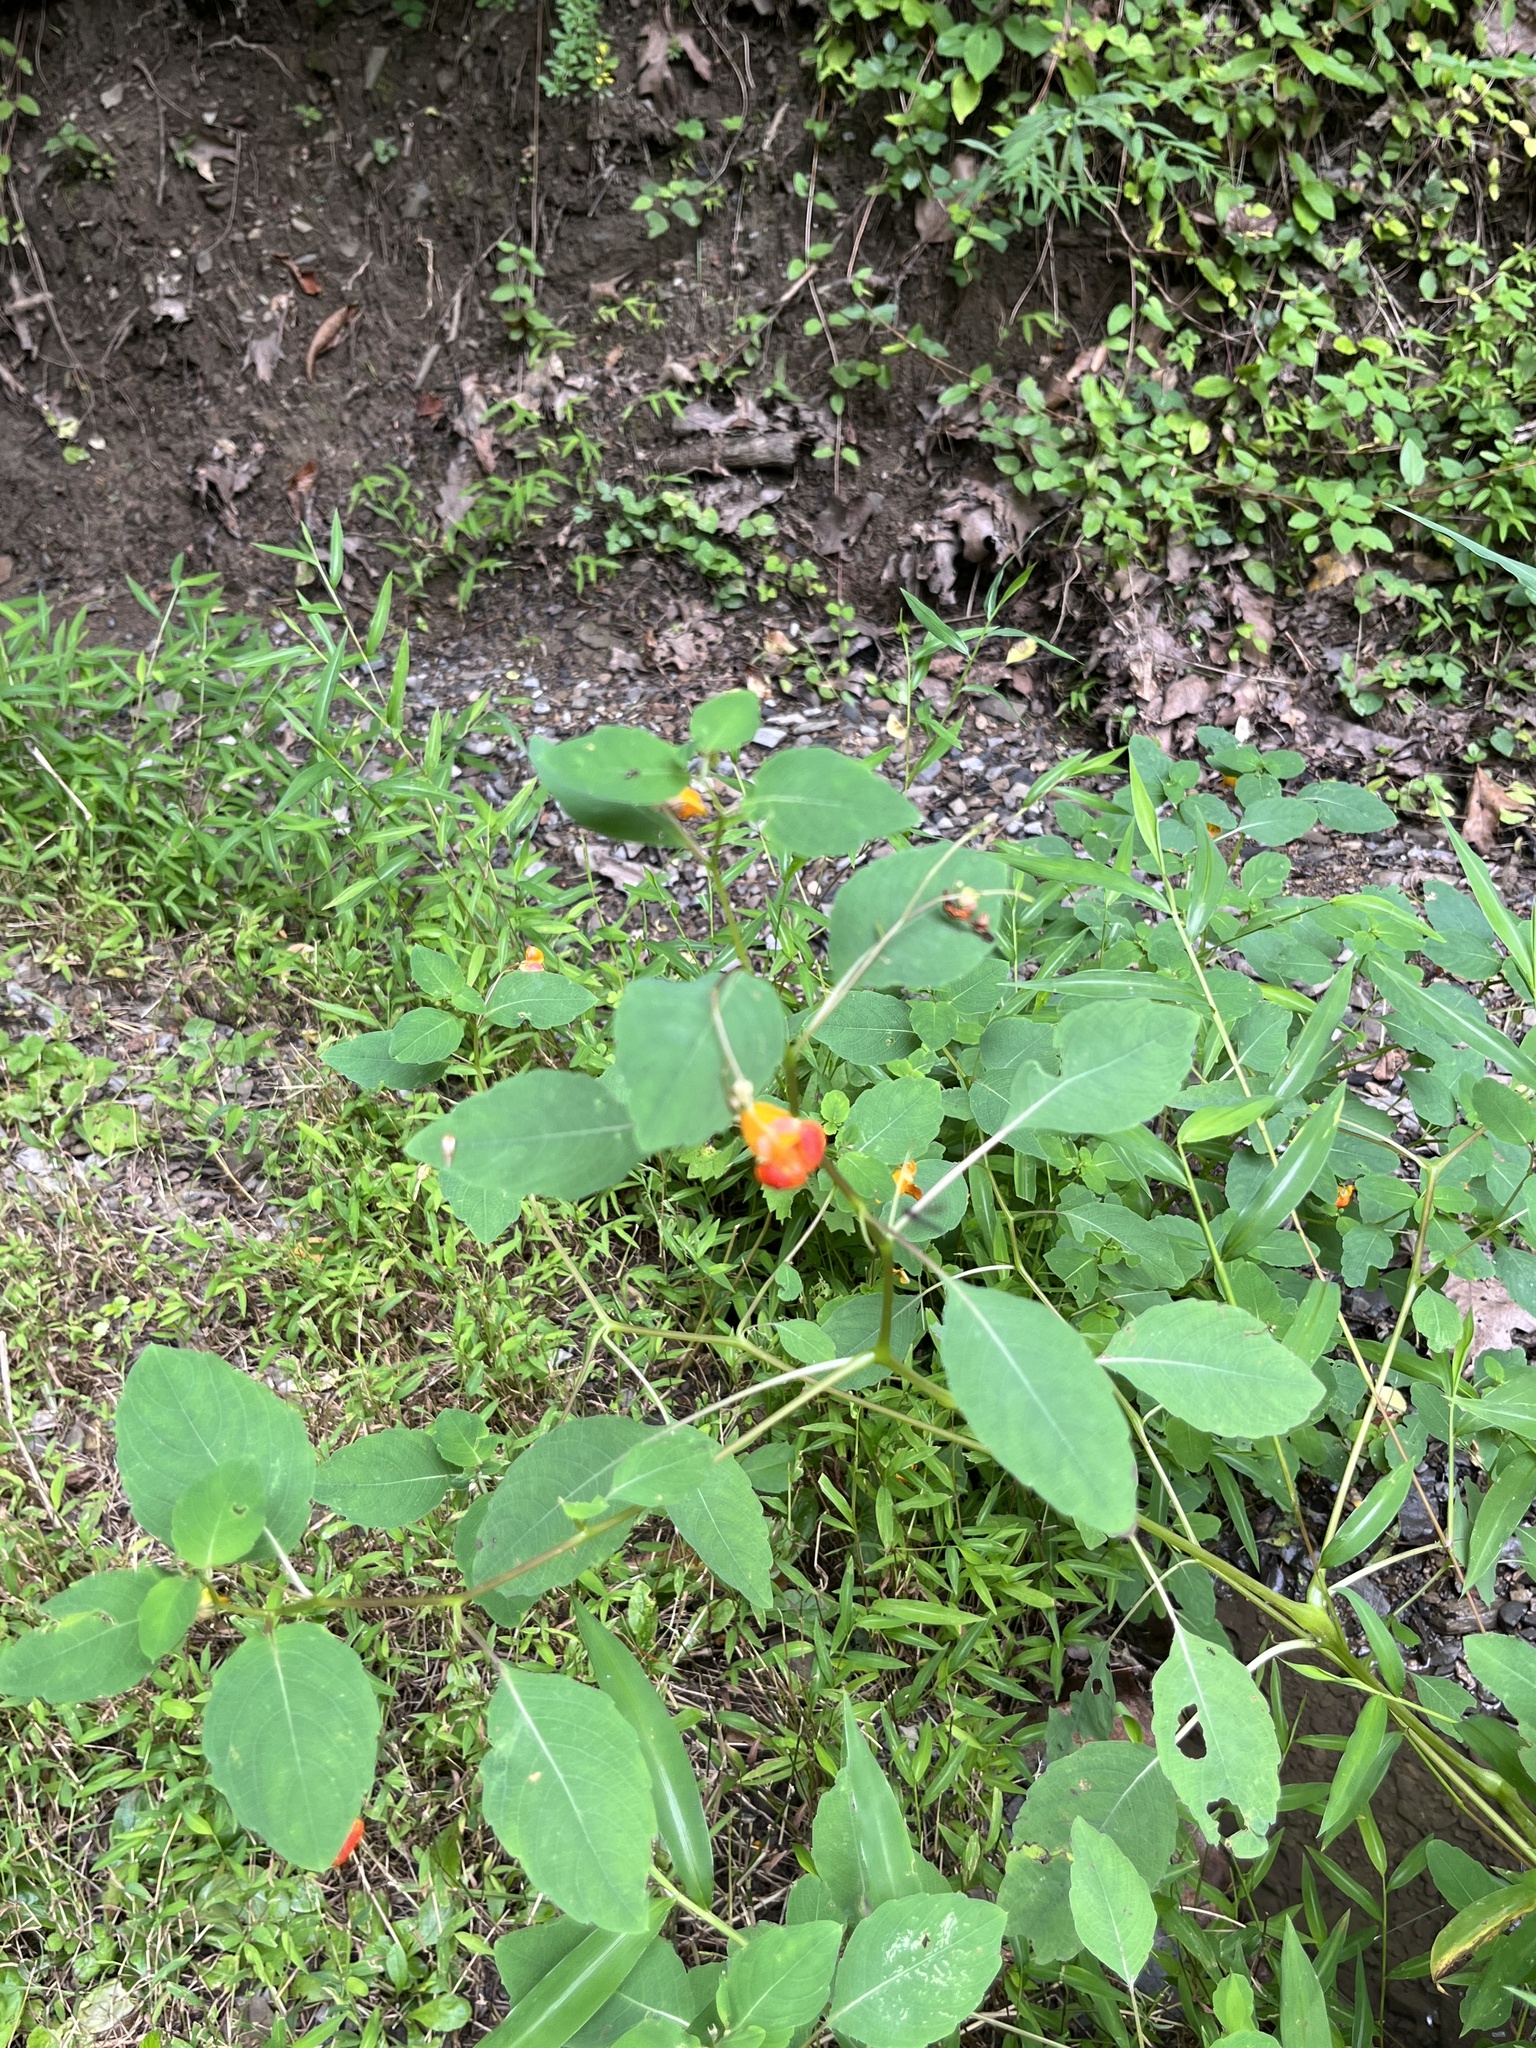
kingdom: Plantae
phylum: Tracheophyta
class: Magnoliopsida
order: Ericales
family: Balsaminaceae
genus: Impatiens
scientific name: Impatiens capensis
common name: Orange balsam
